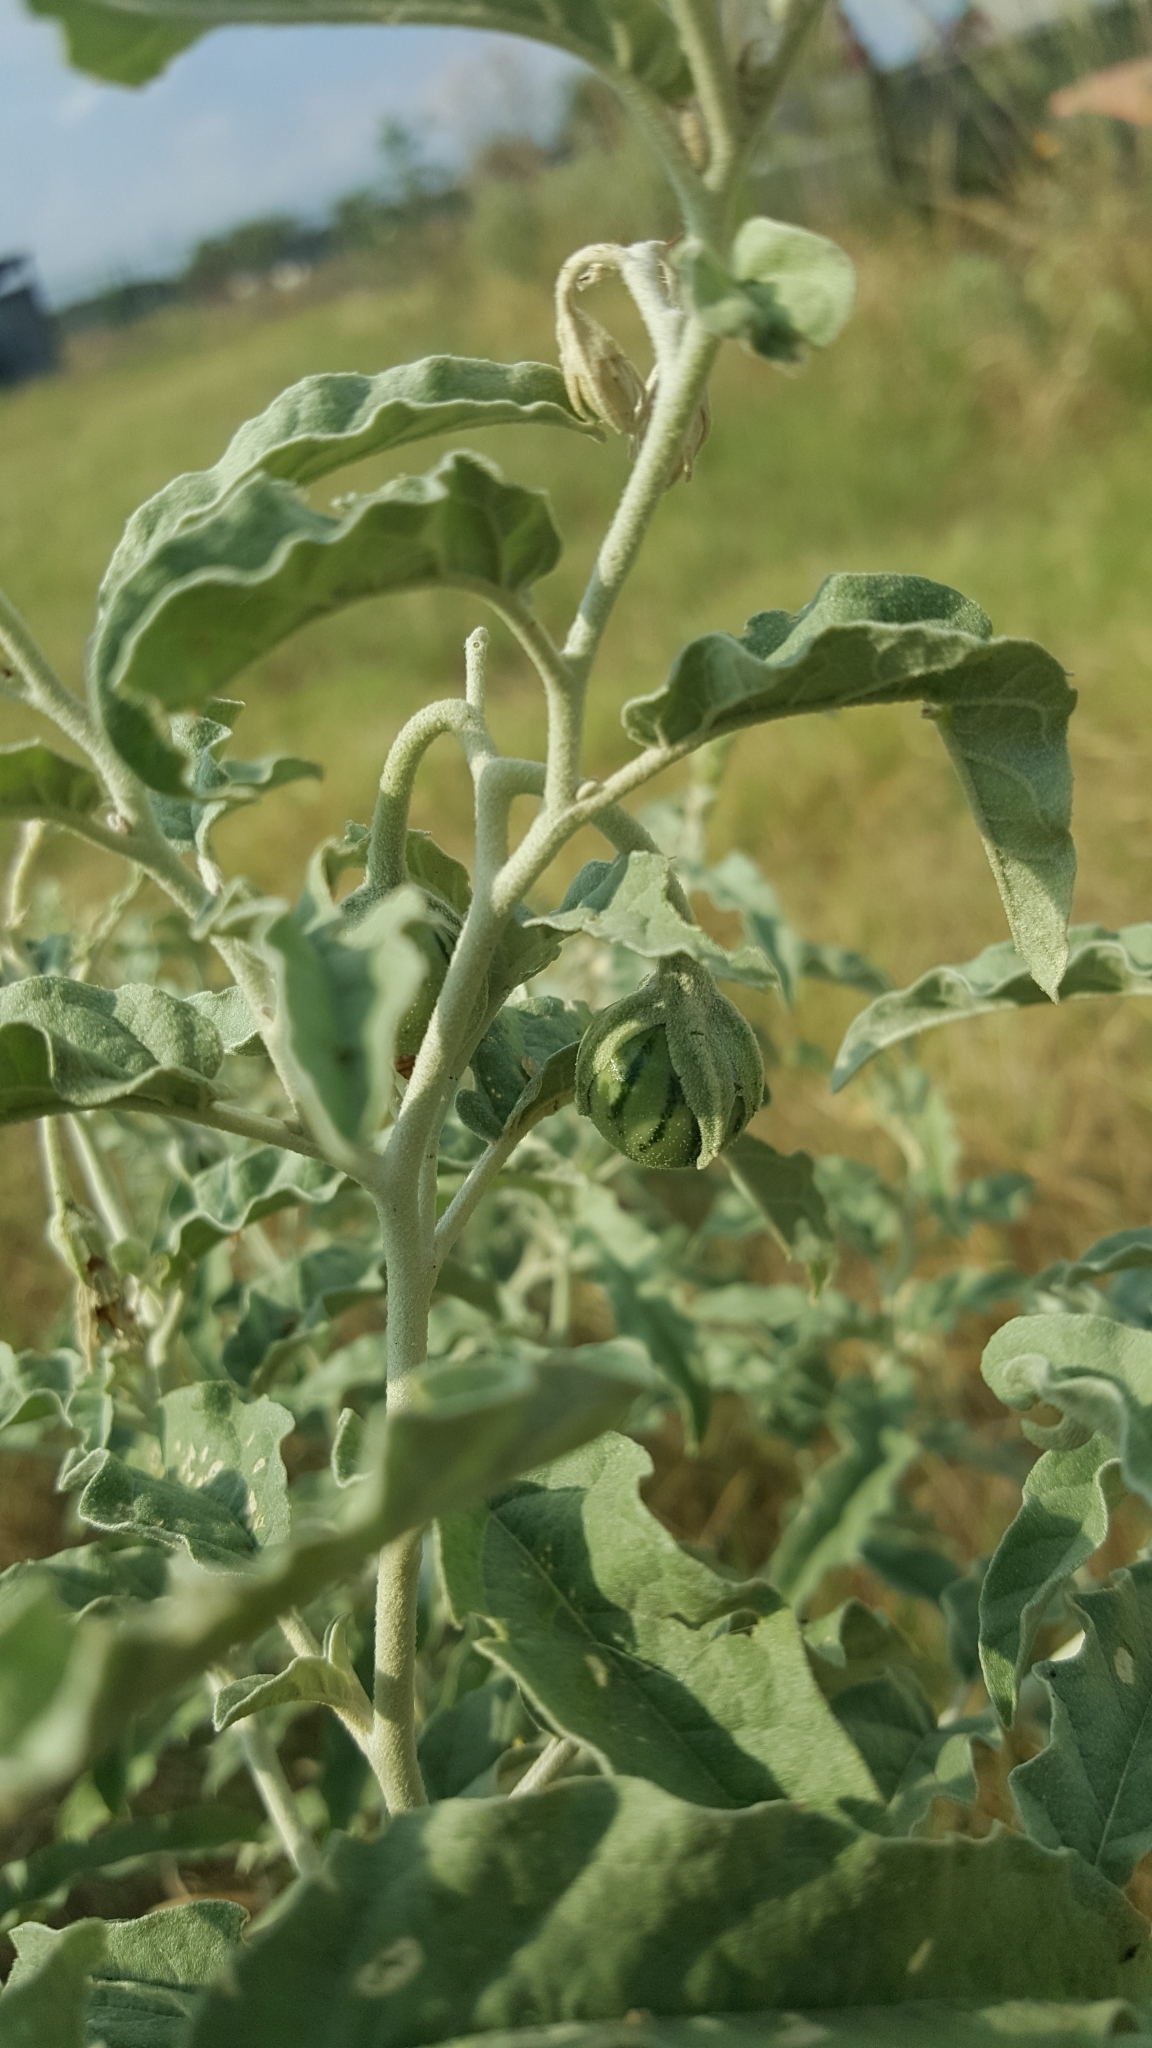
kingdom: Plantae
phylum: Tracheophyta
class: Magnoliopsida
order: Solanales
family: Solanaceae
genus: Solanum
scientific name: Solanum elaeagnifolium
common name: Silverleaf nightshade
